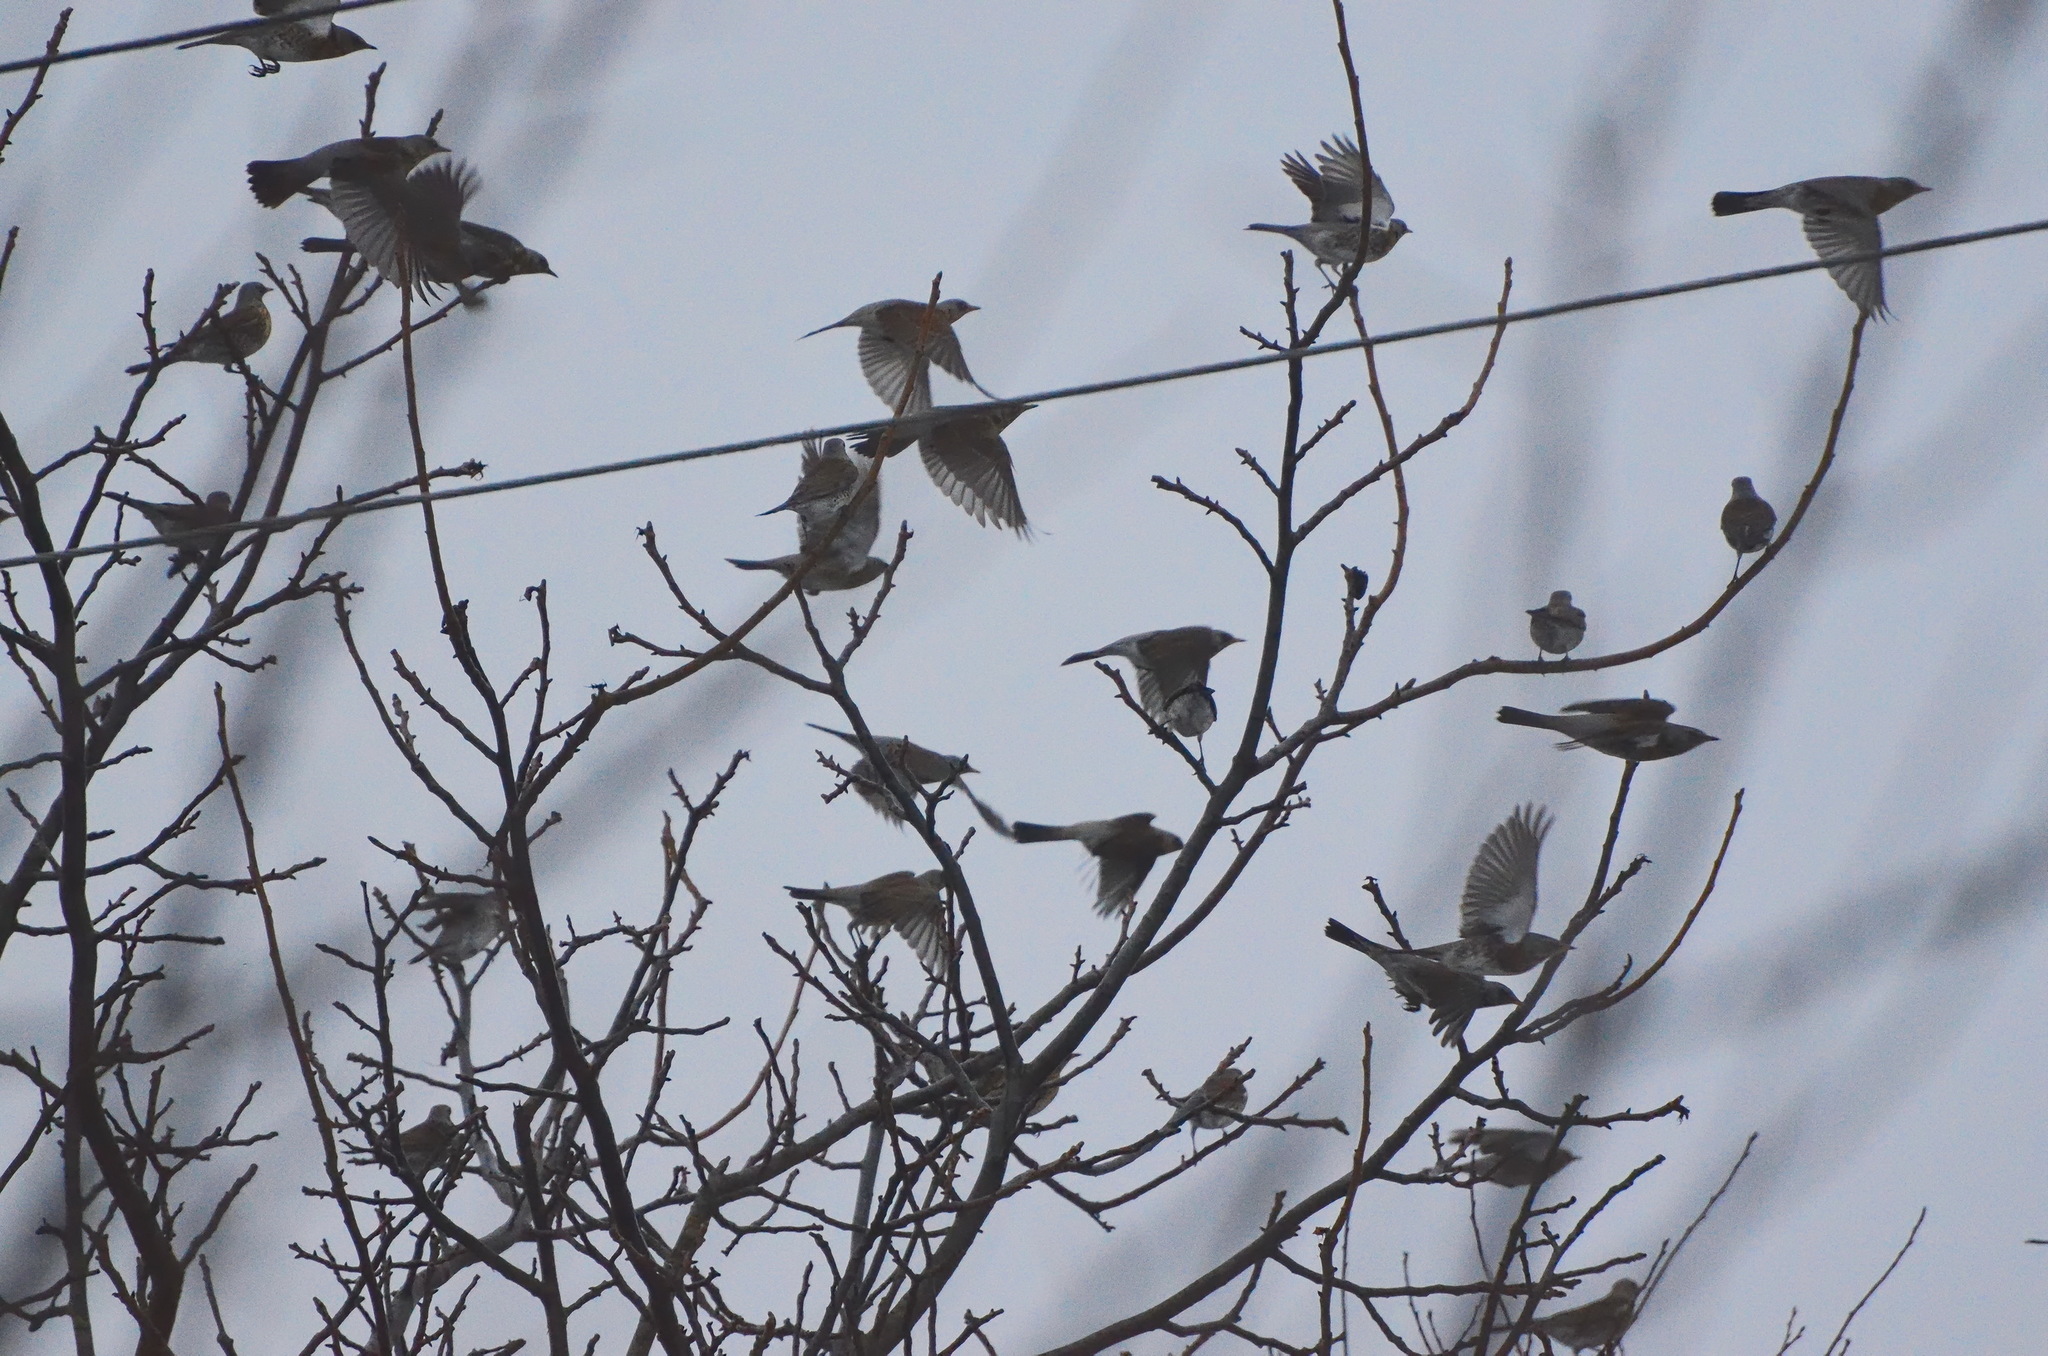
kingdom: Animalia
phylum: Chordata
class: Aves
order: Passeriformes
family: Turdidae
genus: Turdus
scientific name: Turdus pilaris
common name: Fieldfare
